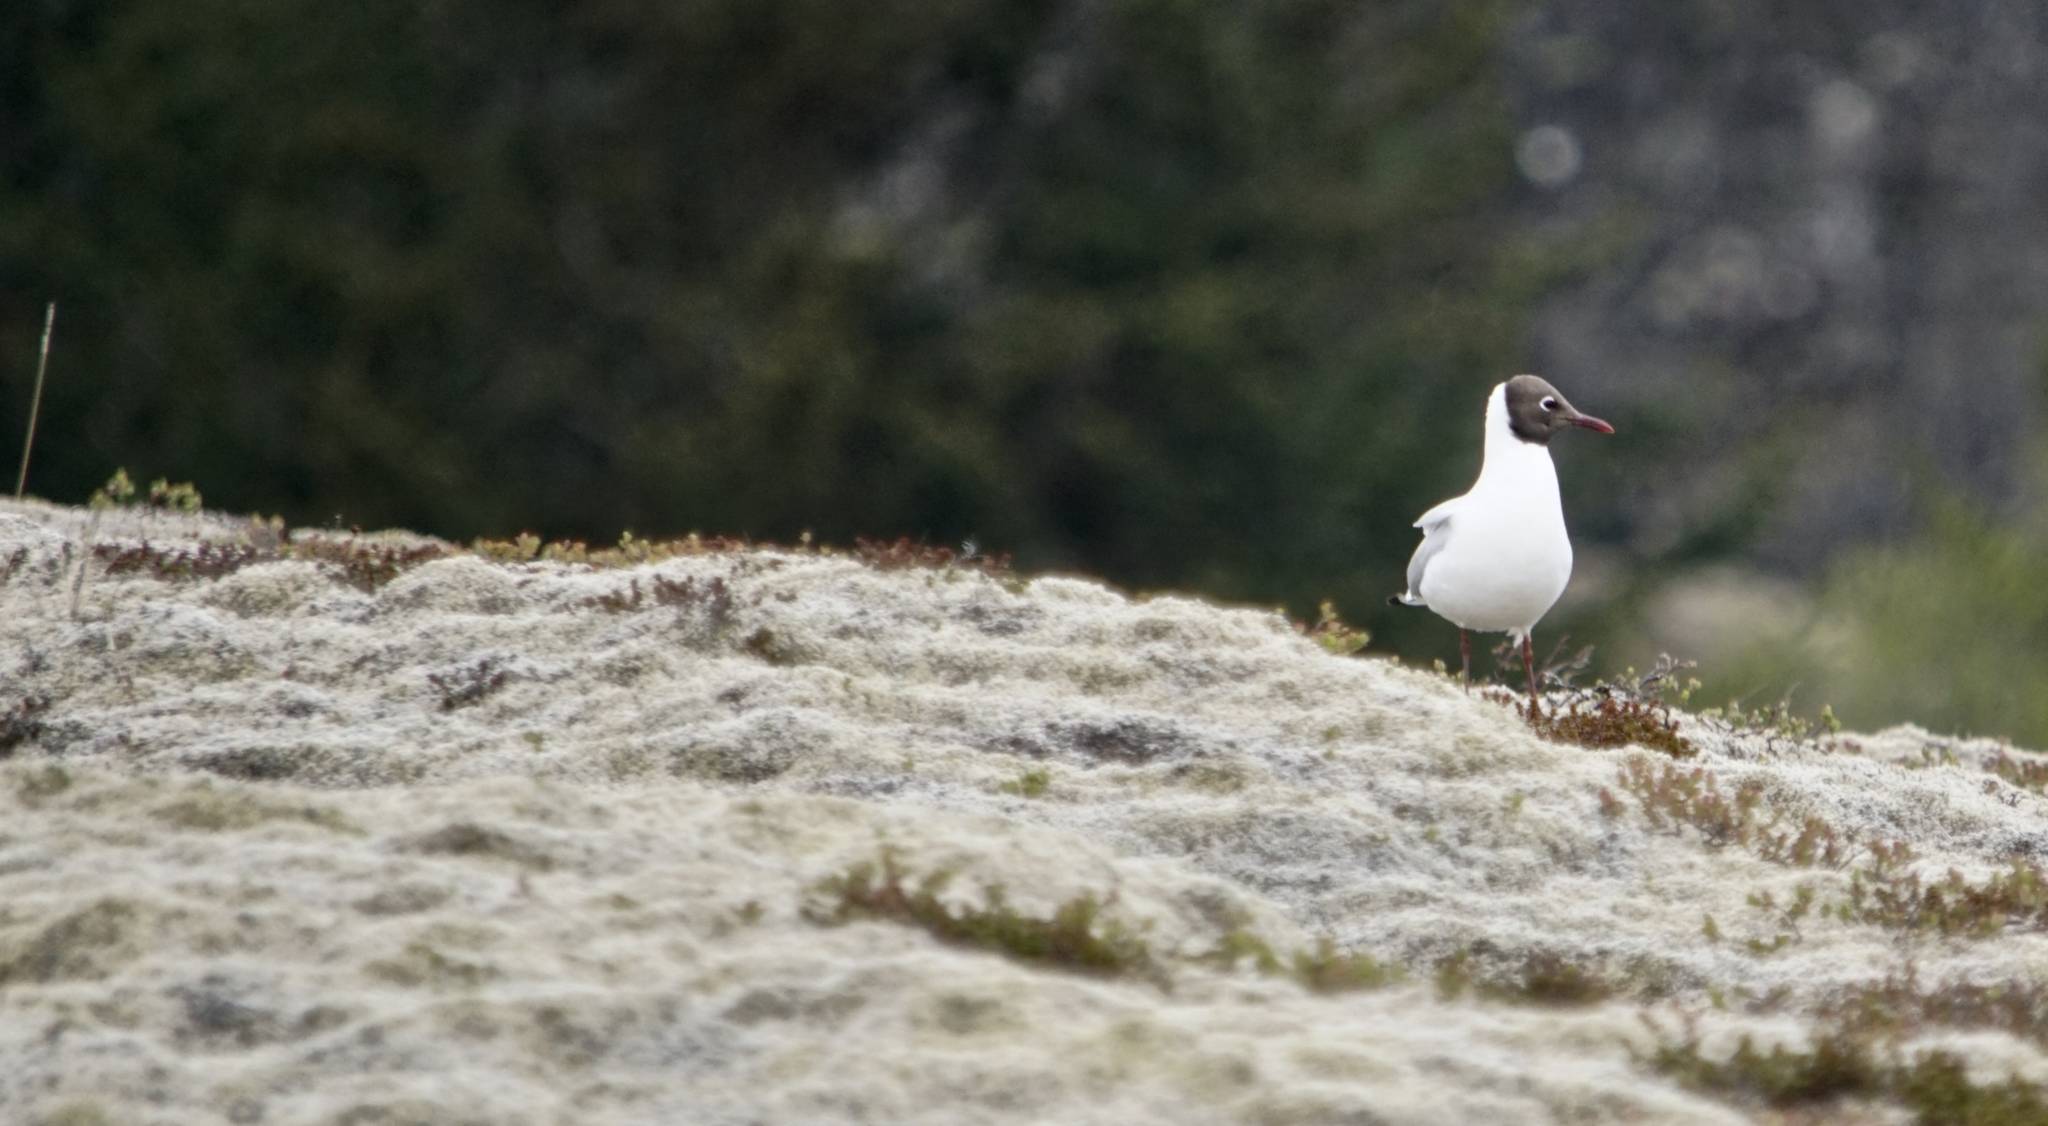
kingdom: Animalia
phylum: Chordata
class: Aves
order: Charadriiformes
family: Laridae
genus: Chroicocephalus
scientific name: Chroicocephalus ridibundus
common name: Black-headed gull
